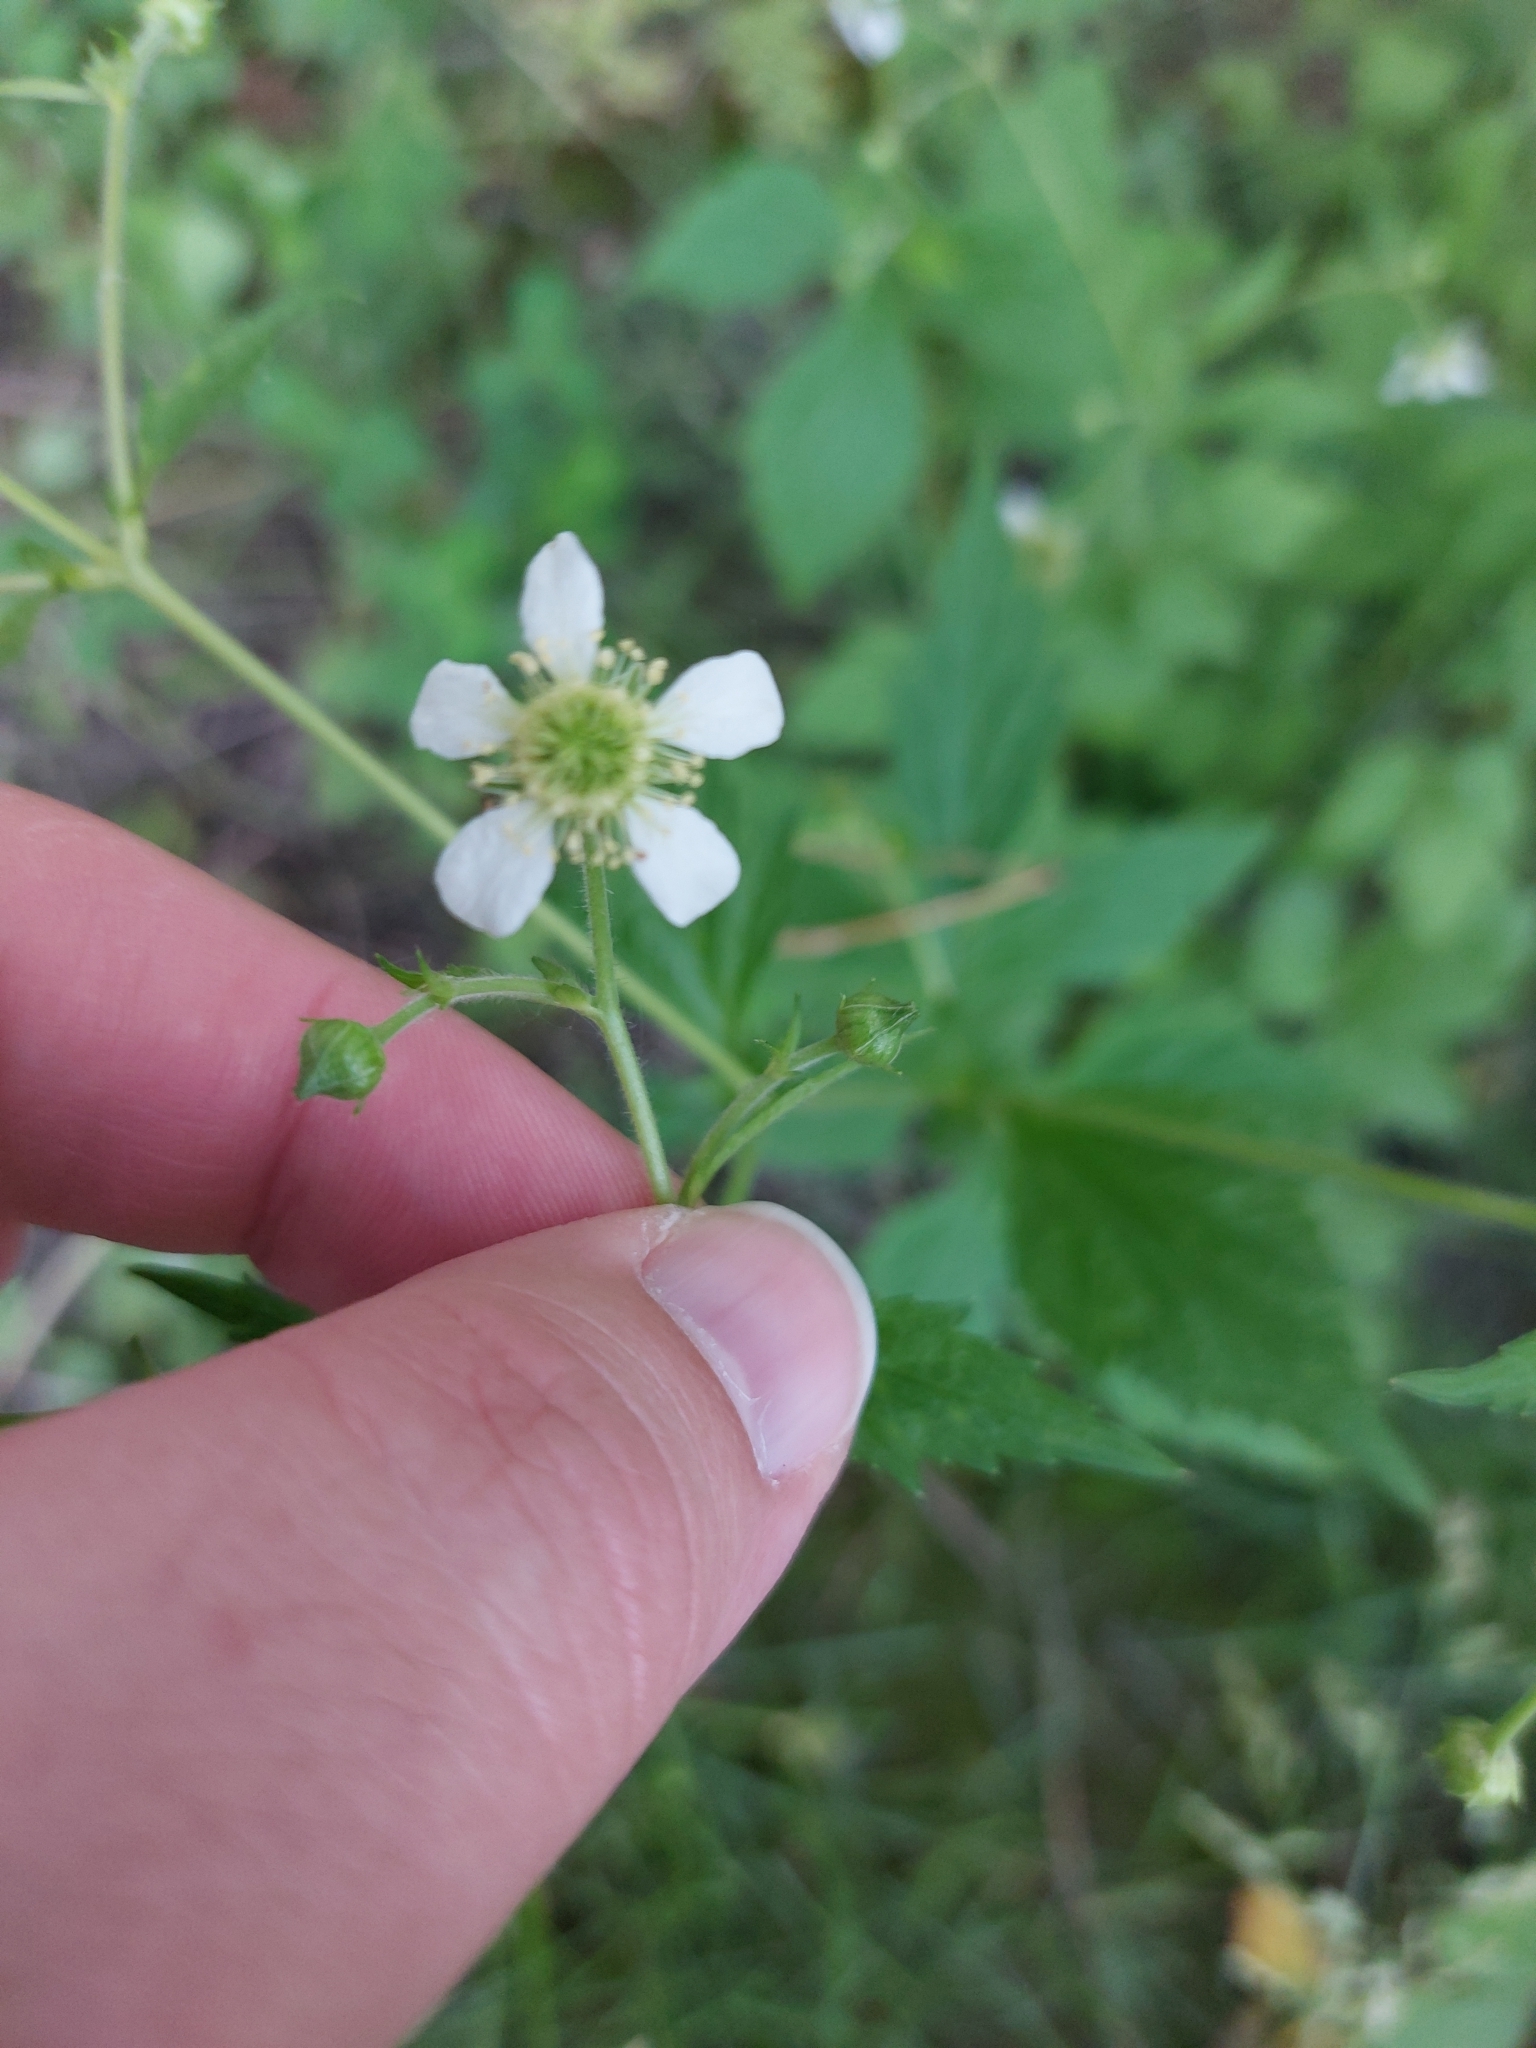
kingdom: Plantae
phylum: Tracheophyta
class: Magnoliopsida
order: Rosales
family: Rosaceae
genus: Geum
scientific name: Geum canadense
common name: White avens
